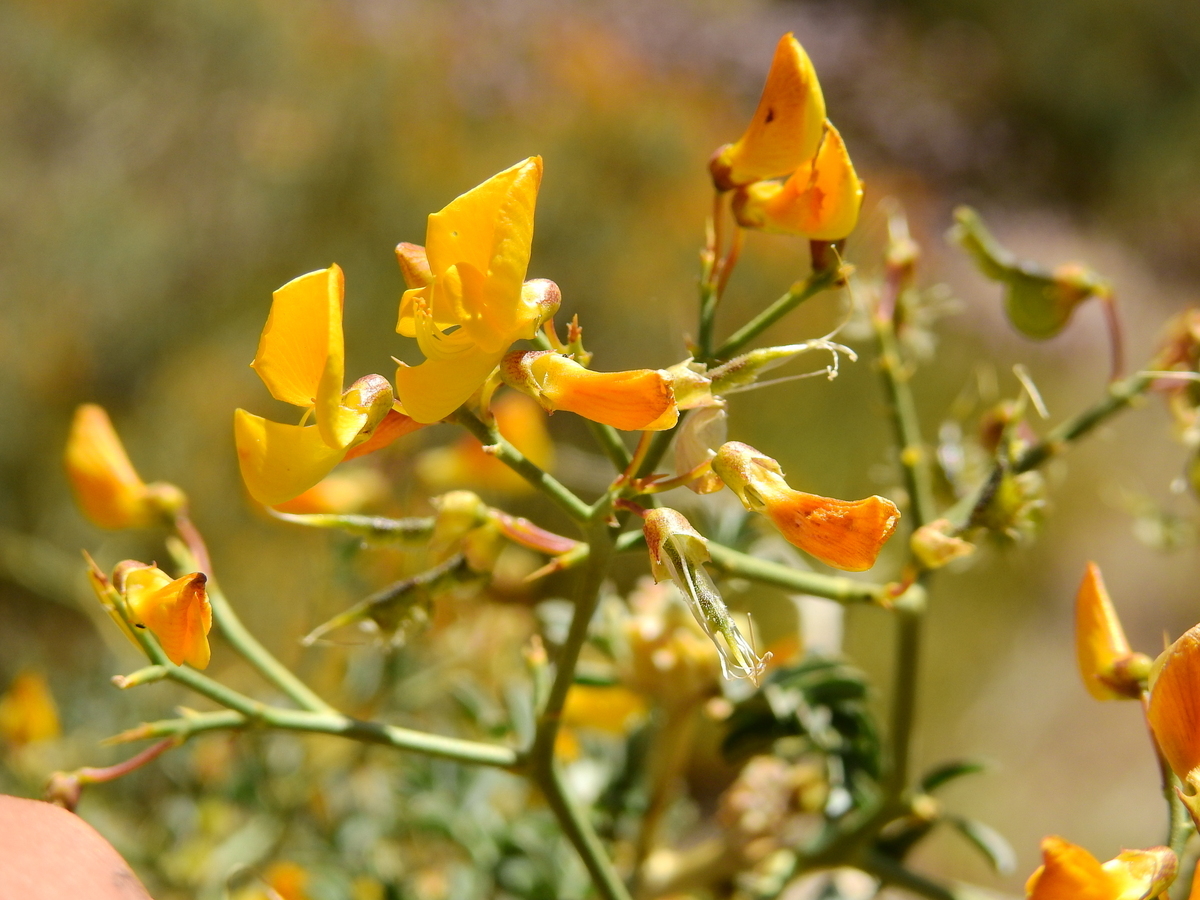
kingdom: Plantae
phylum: Tracheophyta
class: Magnoliopsida
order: Fabales
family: Fabaceae
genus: Adesmia
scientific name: Adesmia obovata
